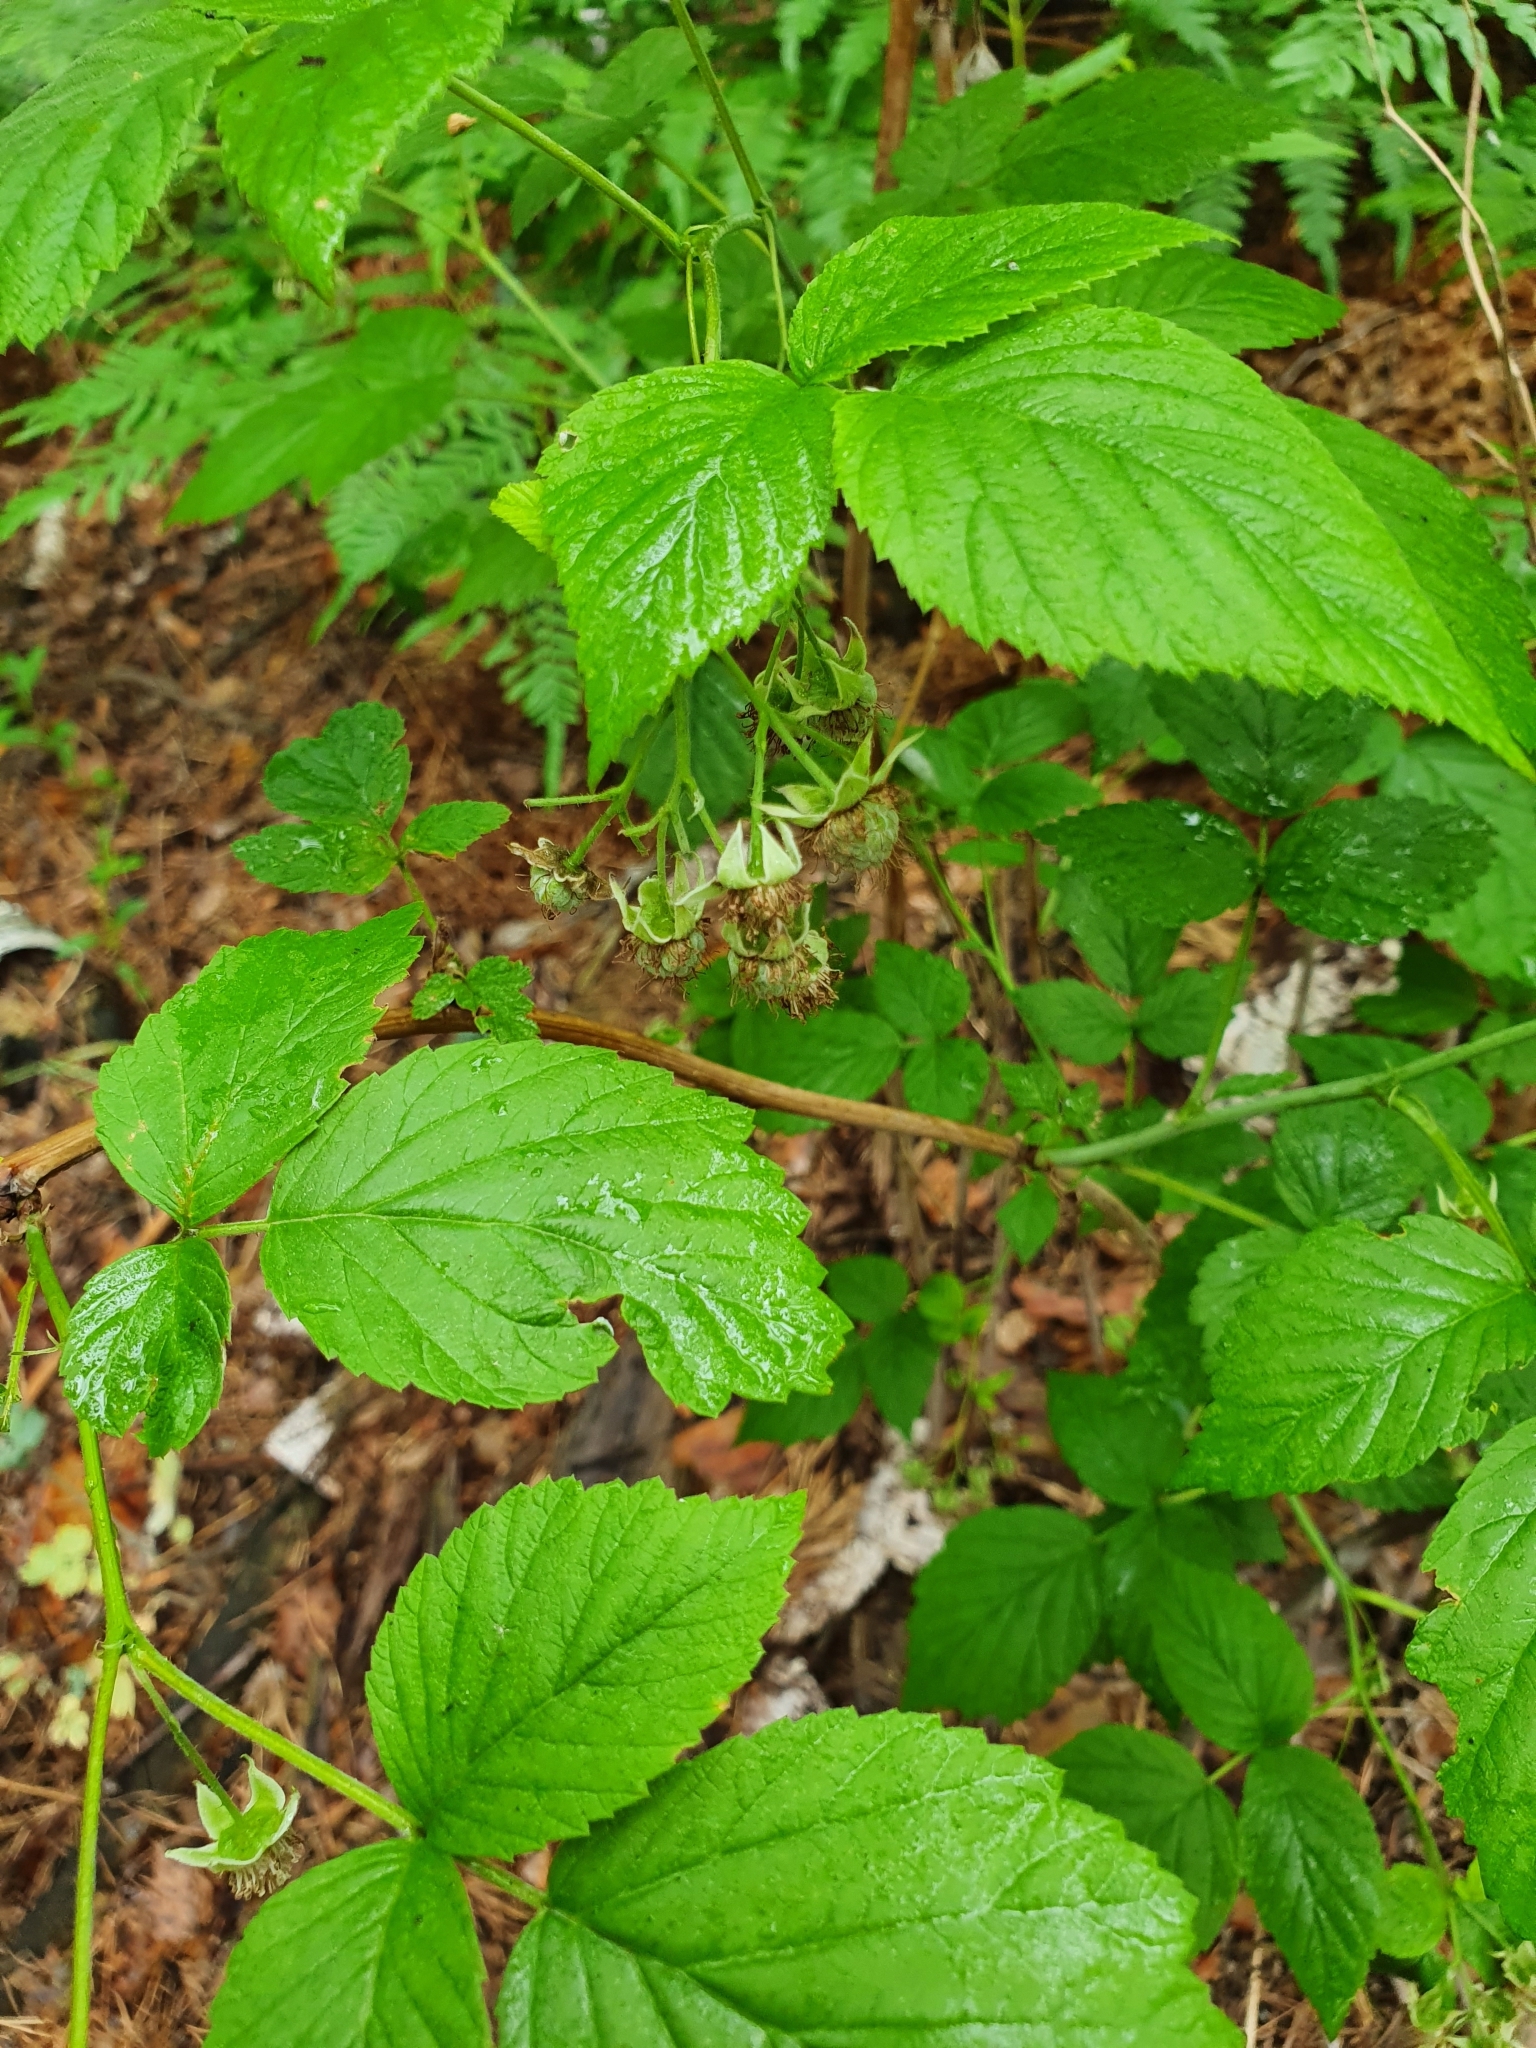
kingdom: Plantae
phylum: Tracheophyta
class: Magnoliopsida
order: Rosales
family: Rosaceae
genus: Rubus
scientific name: Rubus idaeus
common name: Raspberry
